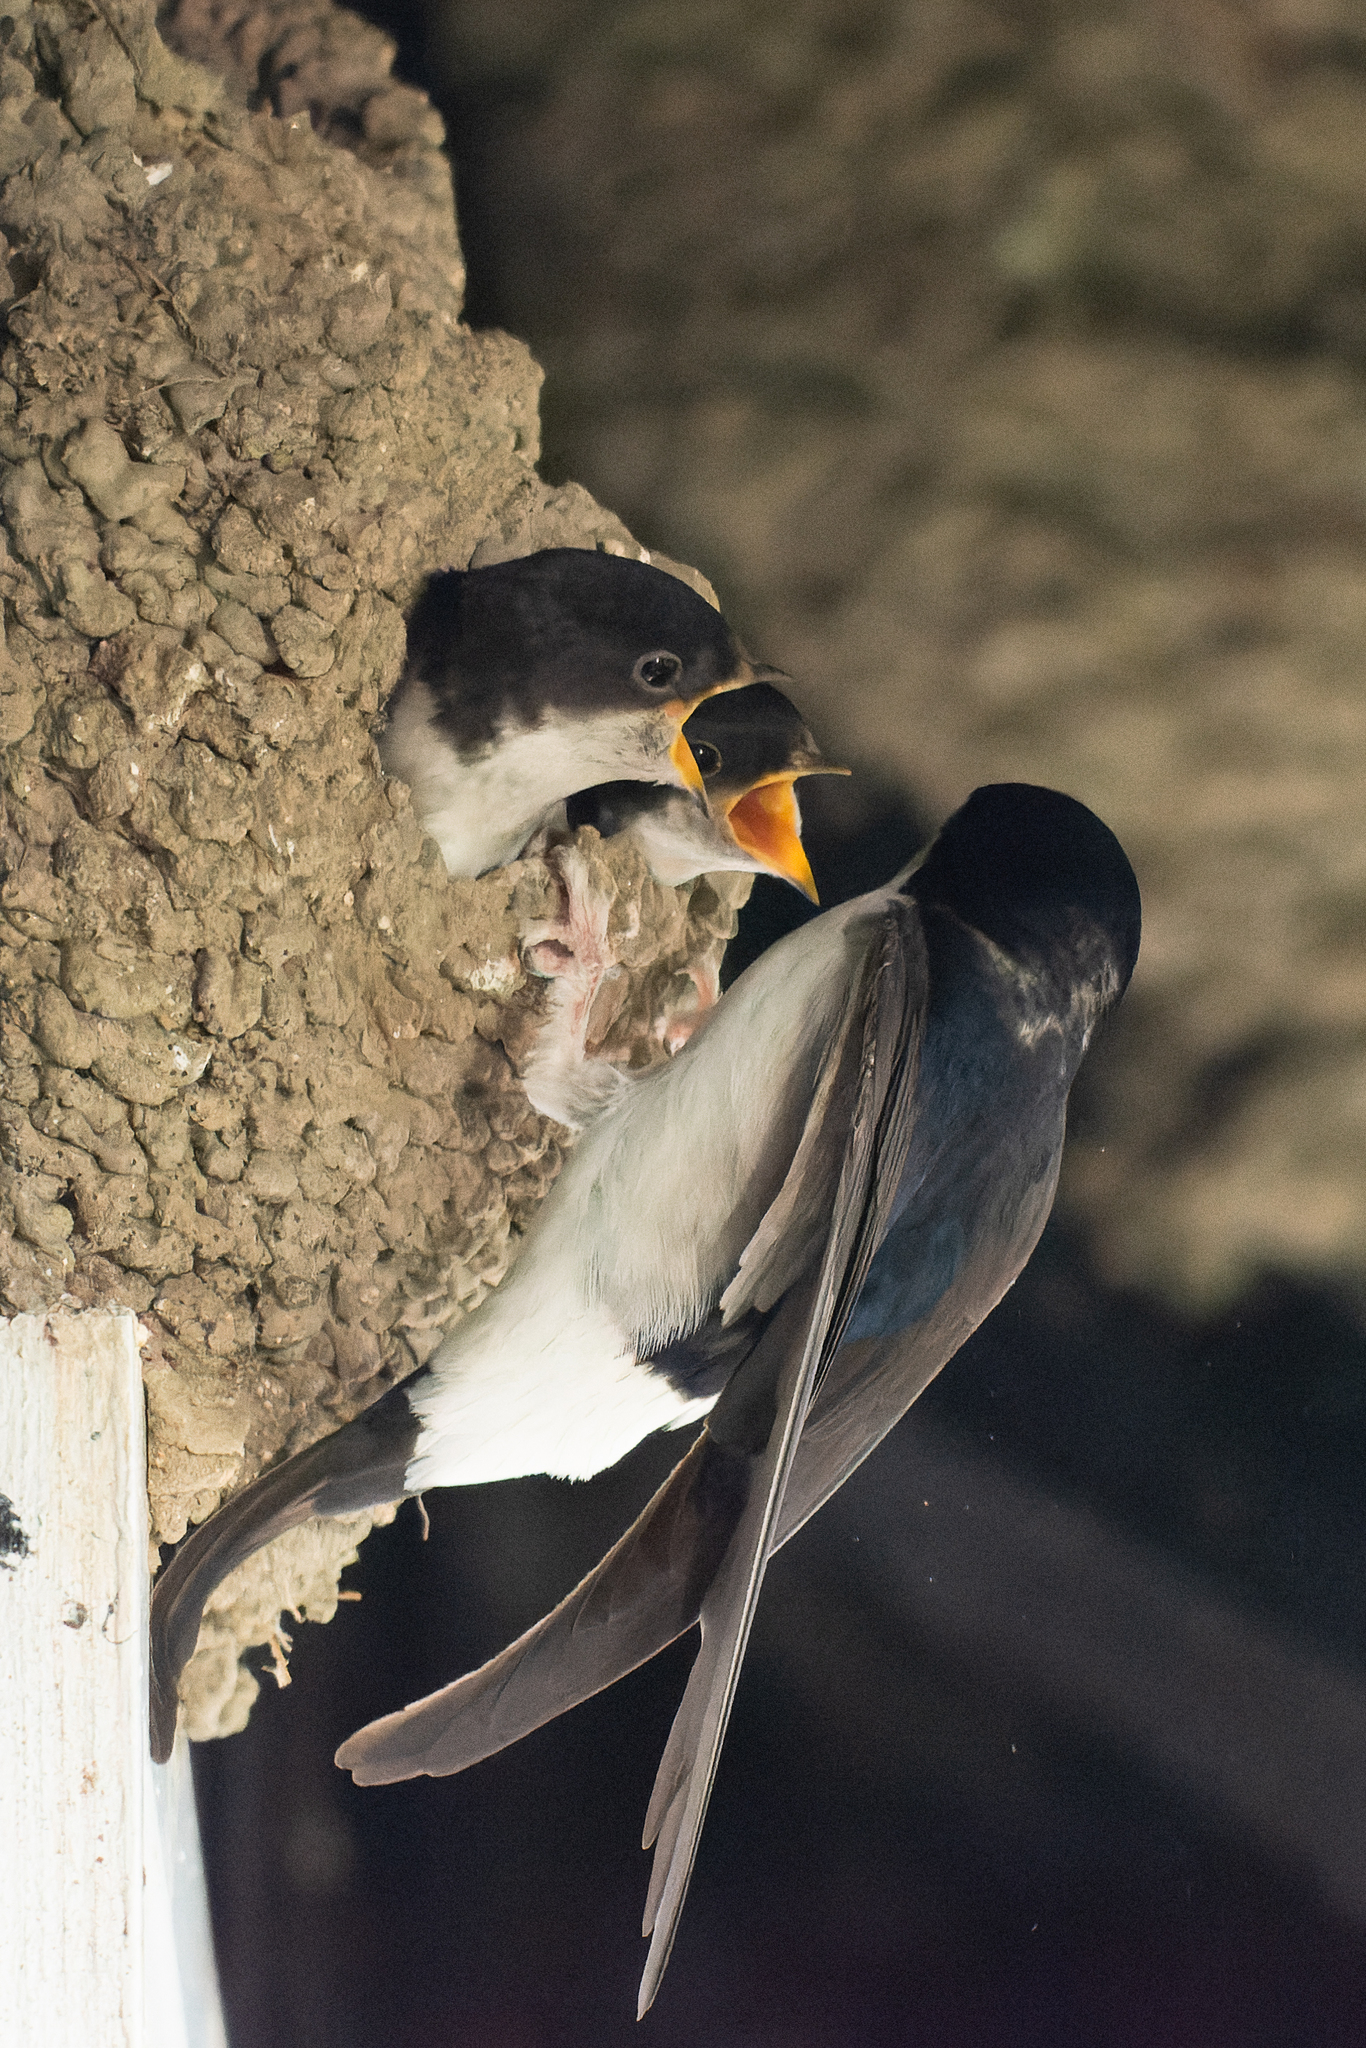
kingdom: Animalia
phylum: Chordata
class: Aves
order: Passeriformes
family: Hirundinidae
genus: Delichon
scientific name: Delichon urbicum
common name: Common house martin
